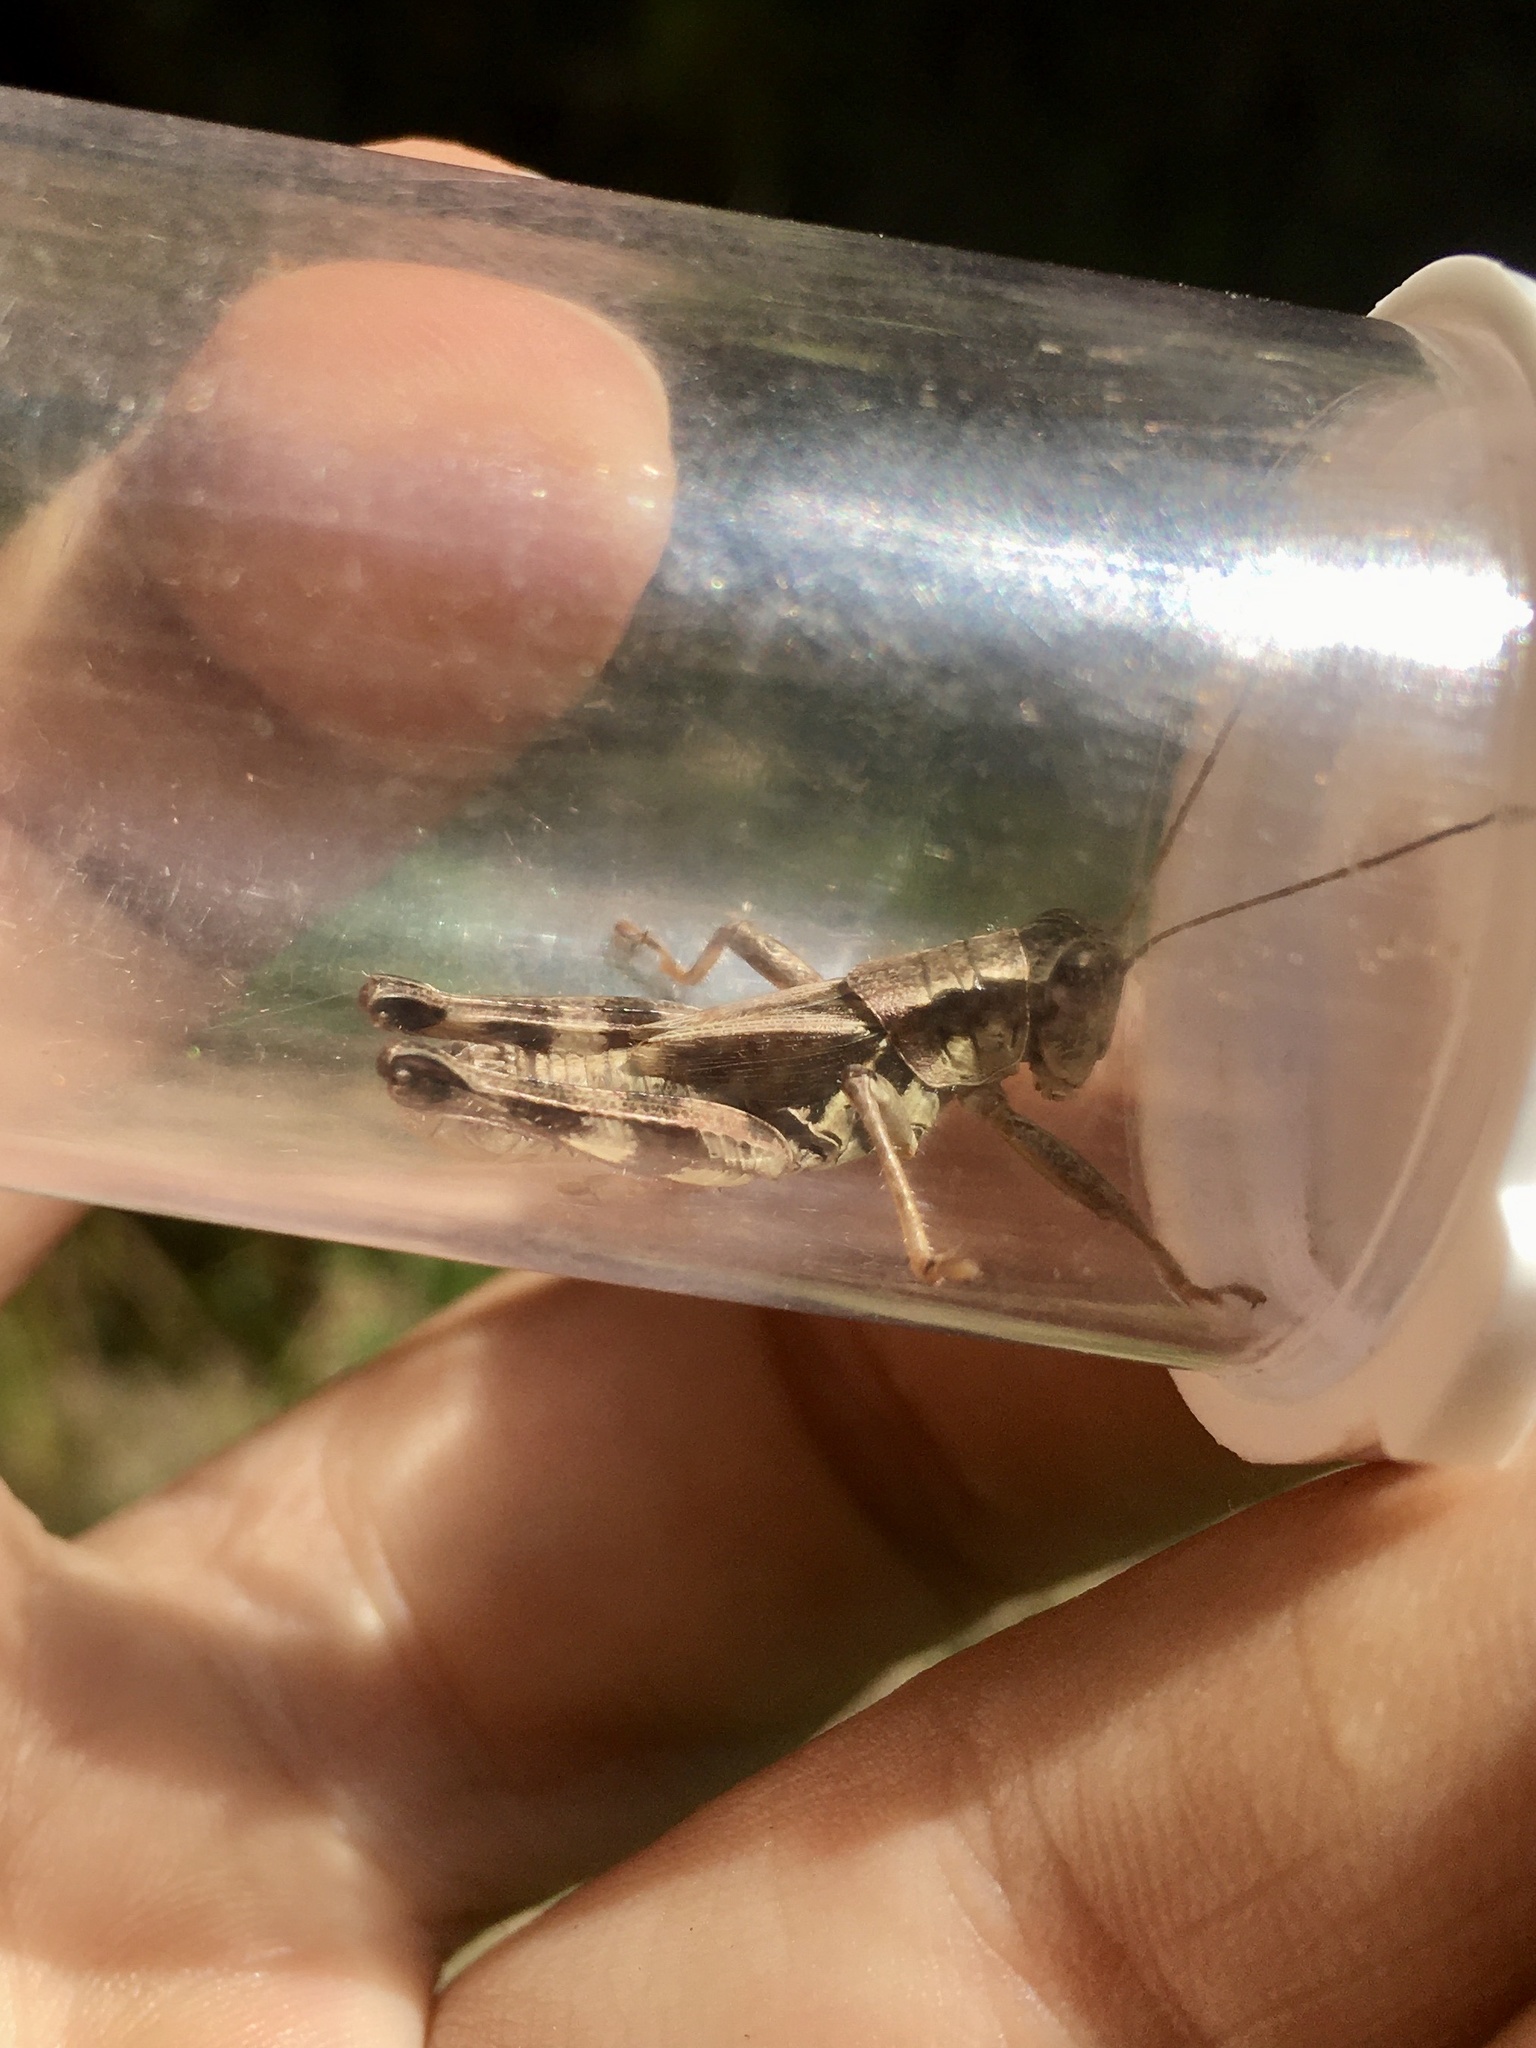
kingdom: Animalia
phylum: Arthropoda
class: Insecta
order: Orthoptera
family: Acrididae
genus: Melanoplus
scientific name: Melanoplus walshii
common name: Walsh's locust
